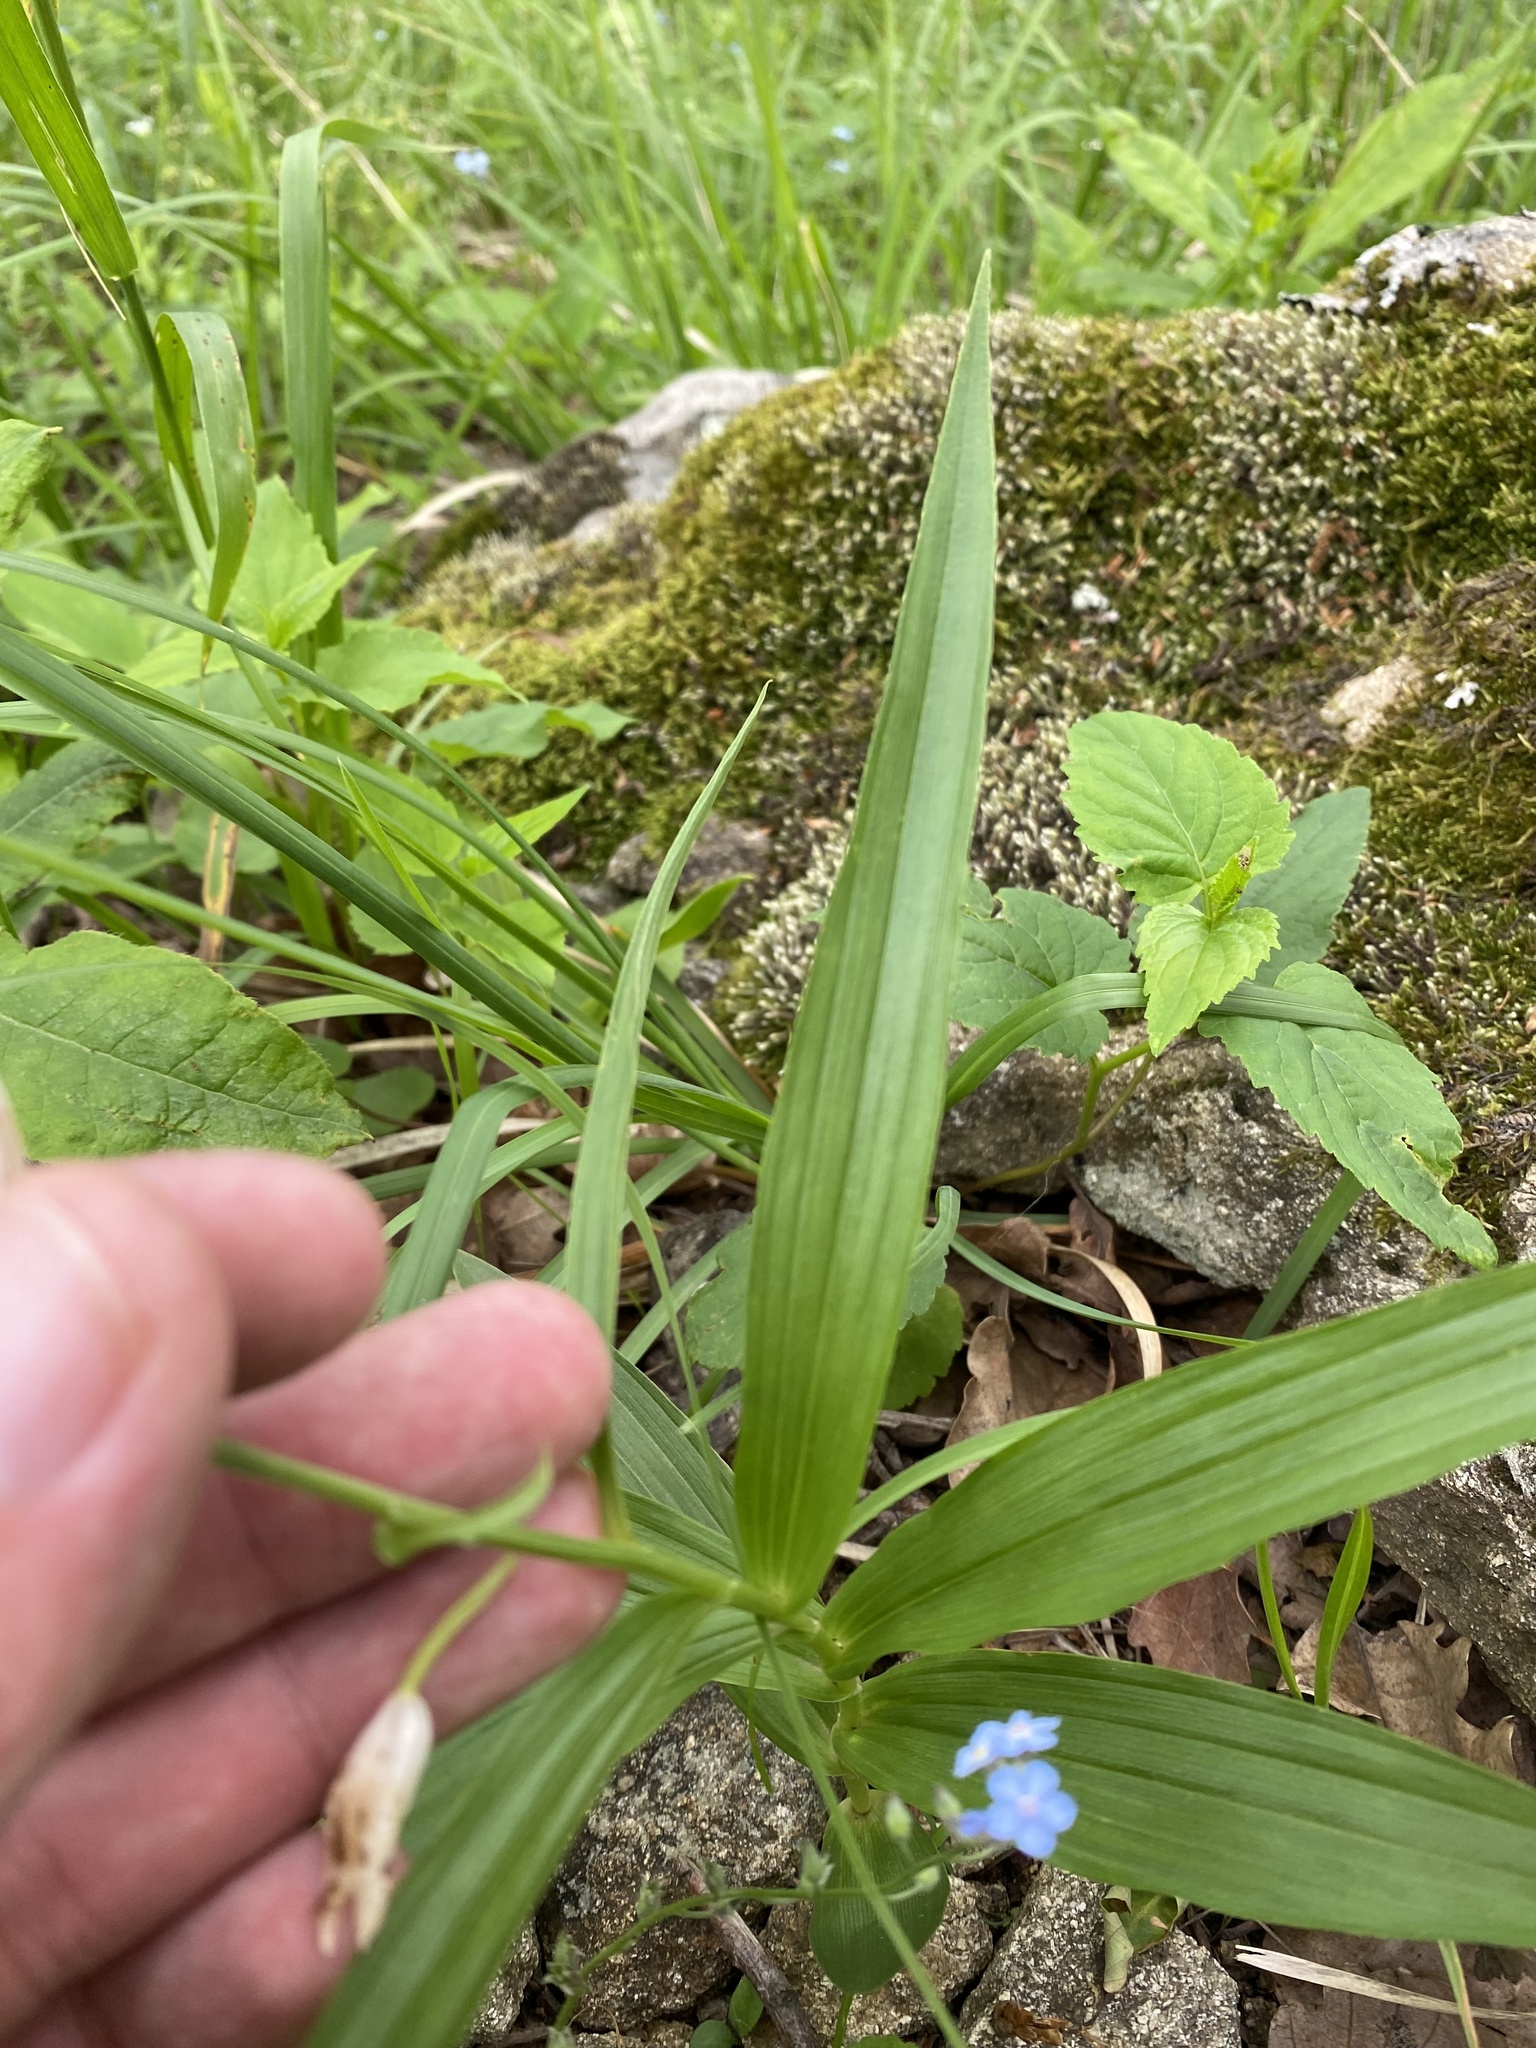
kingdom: Plantae
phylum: Tracheophyta
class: Liliopsida
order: Asparagales
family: Orchidaceae
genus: Cephalanthera
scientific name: Cephalanthera longifolia
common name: Narrow-leaved helleborine
